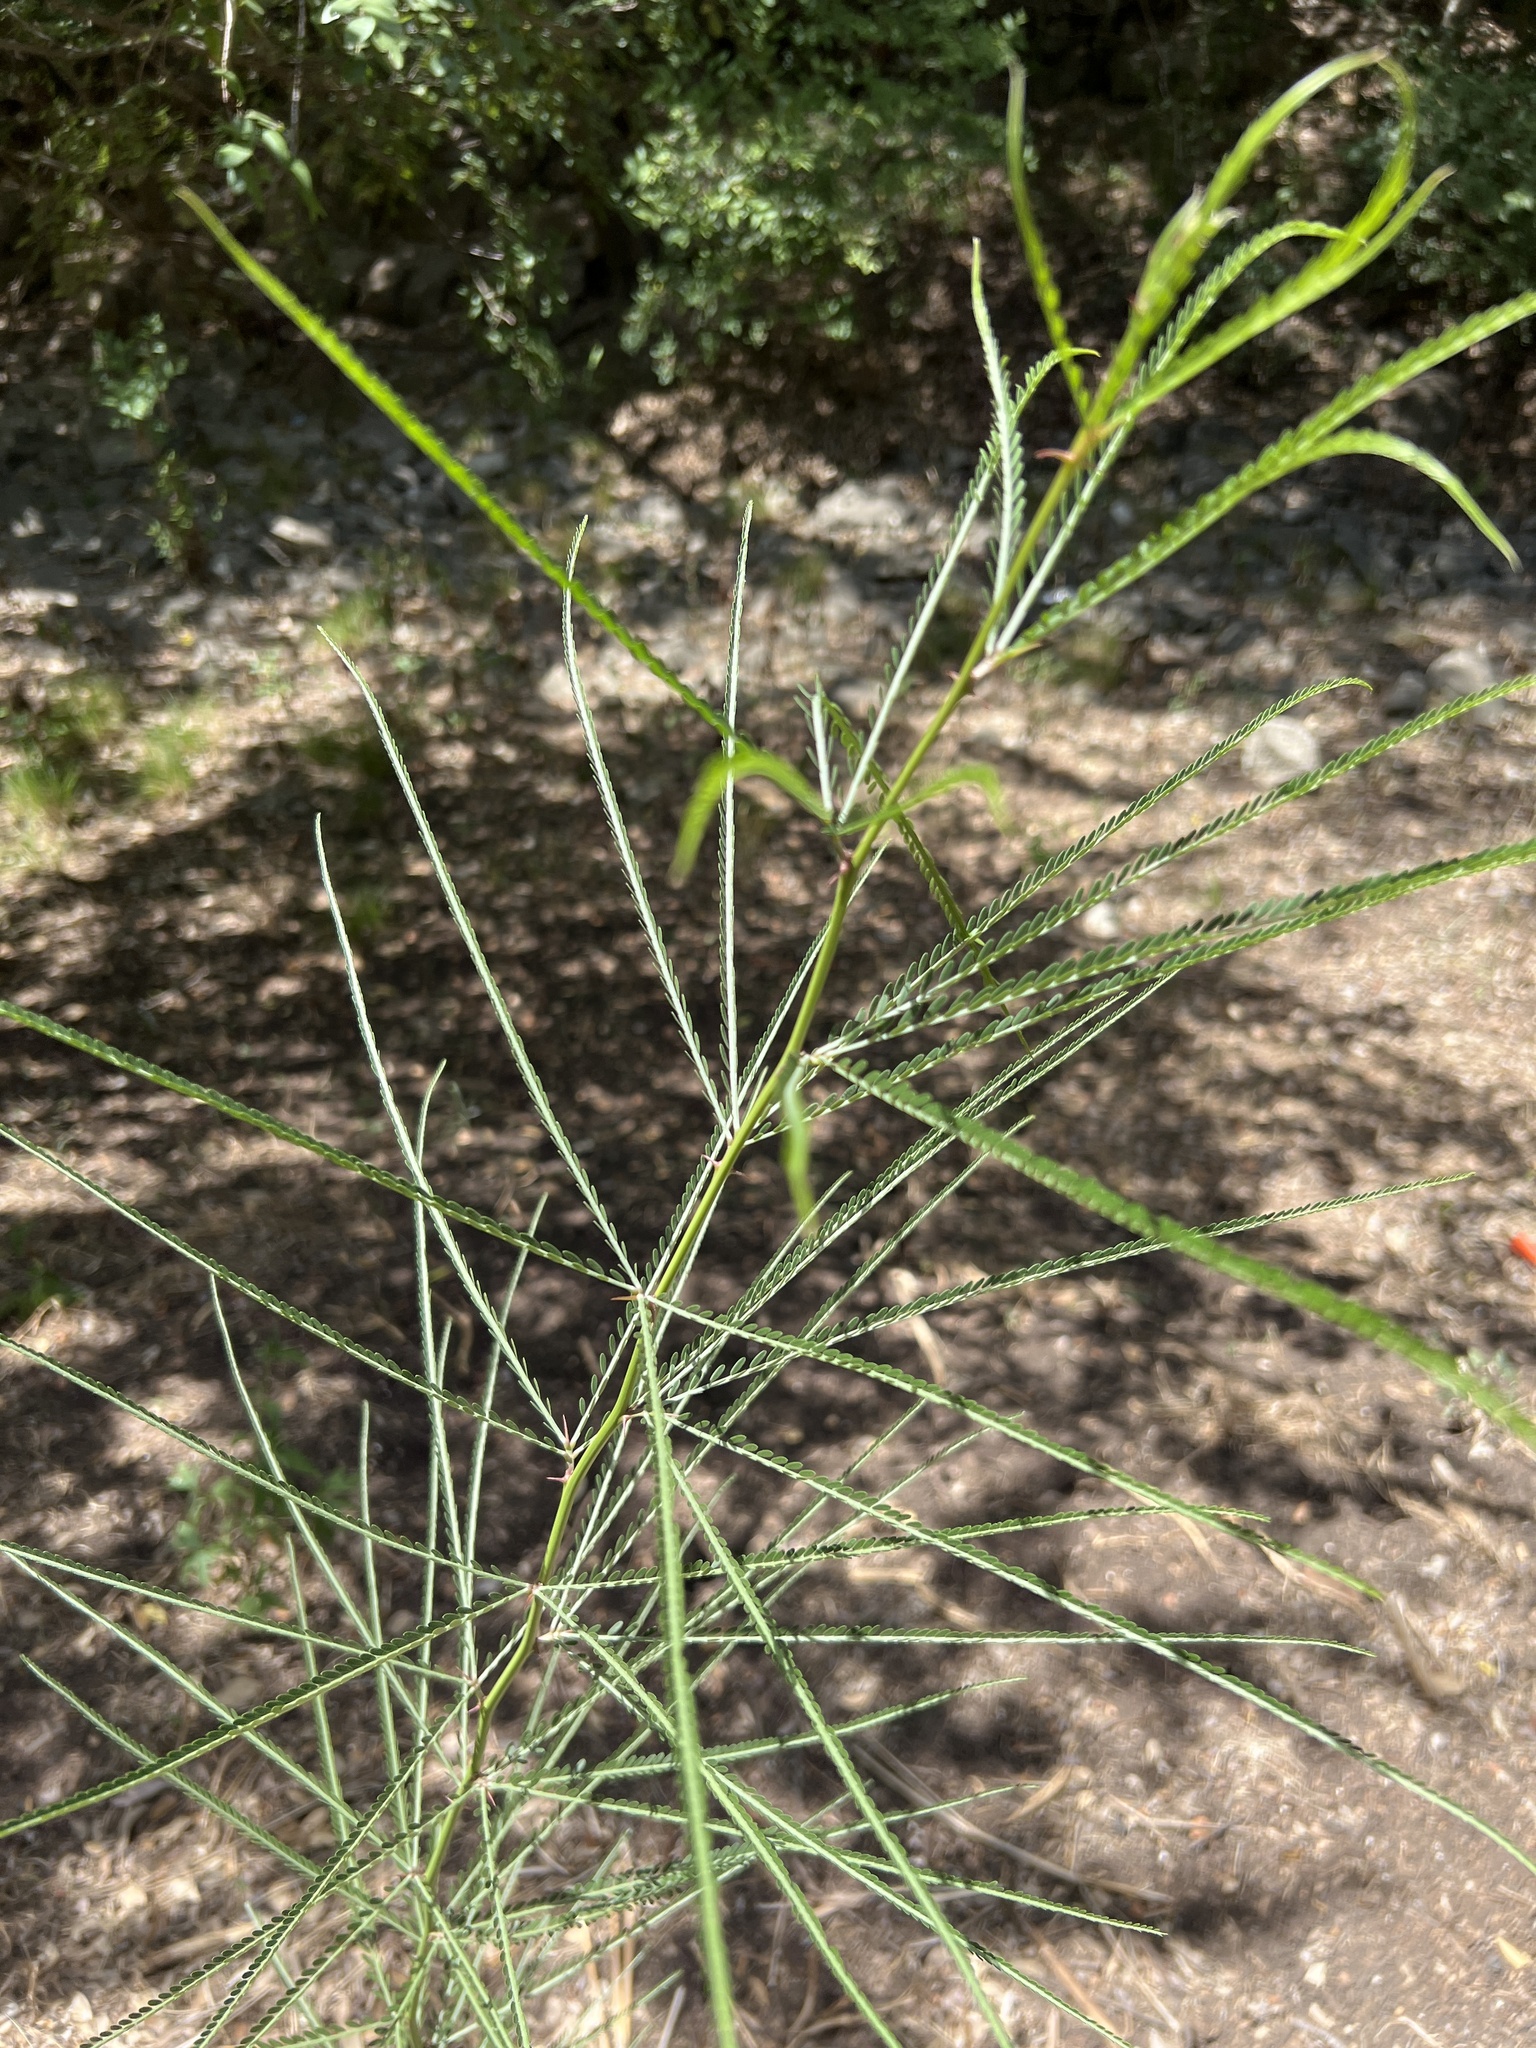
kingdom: Plantae
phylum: Tracheophyta
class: Magnoliopsida
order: Fabales
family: Fabaceae
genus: Parkinsonia
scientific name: Parkinsonia aculeata
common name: Jerusalem thorn
